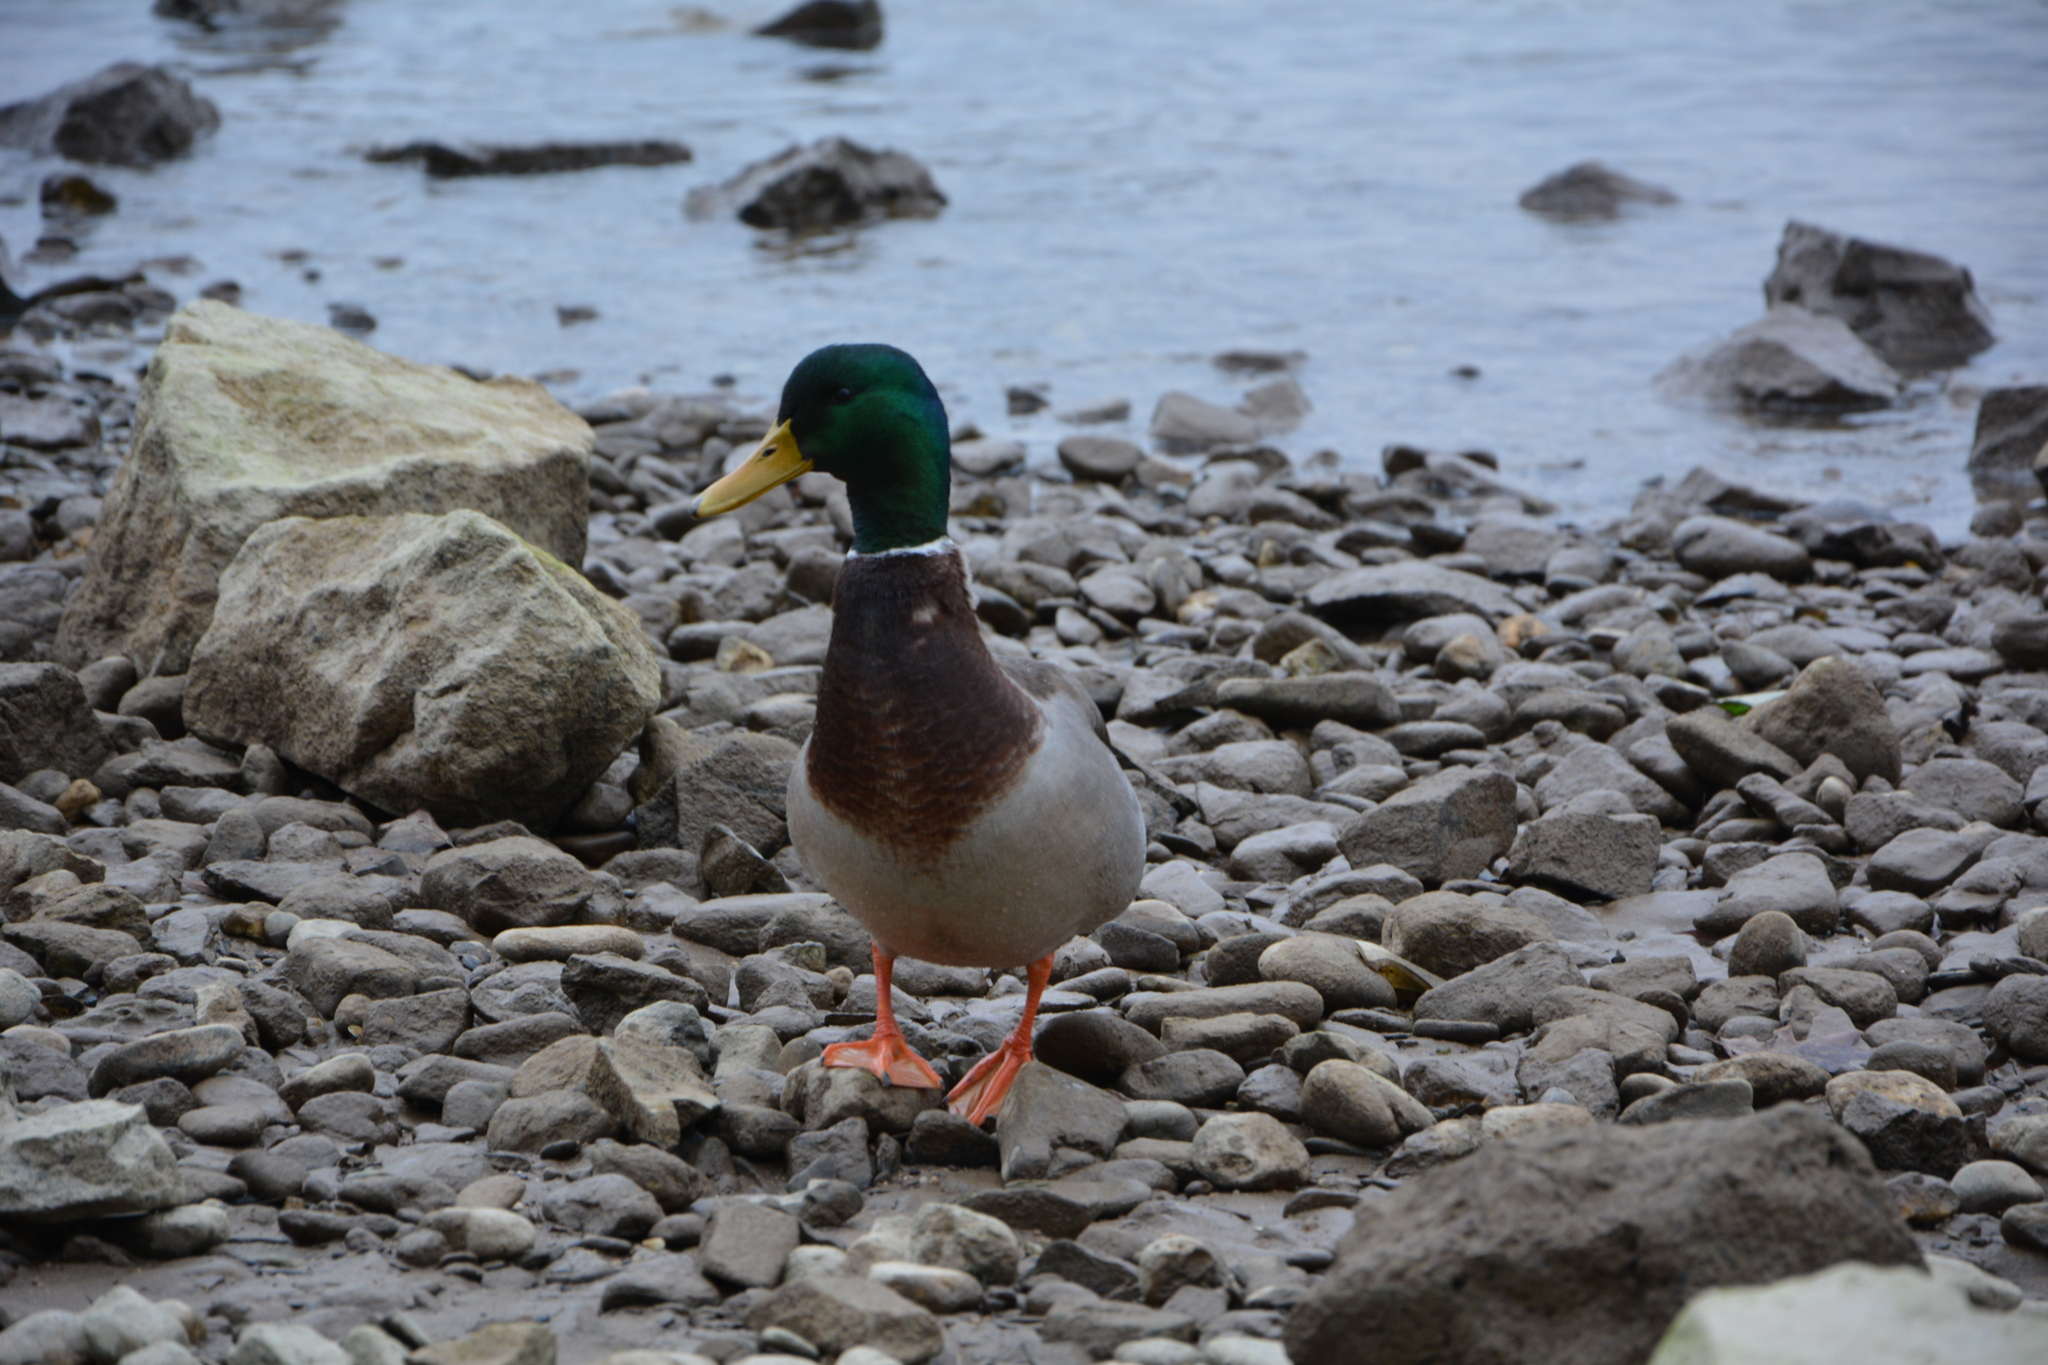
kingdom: Animalia
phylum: Chordata
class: Aves
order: Anseriformes
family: Anatidae
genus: Anas
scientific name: Anas platyrhynchos
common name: Mallard
